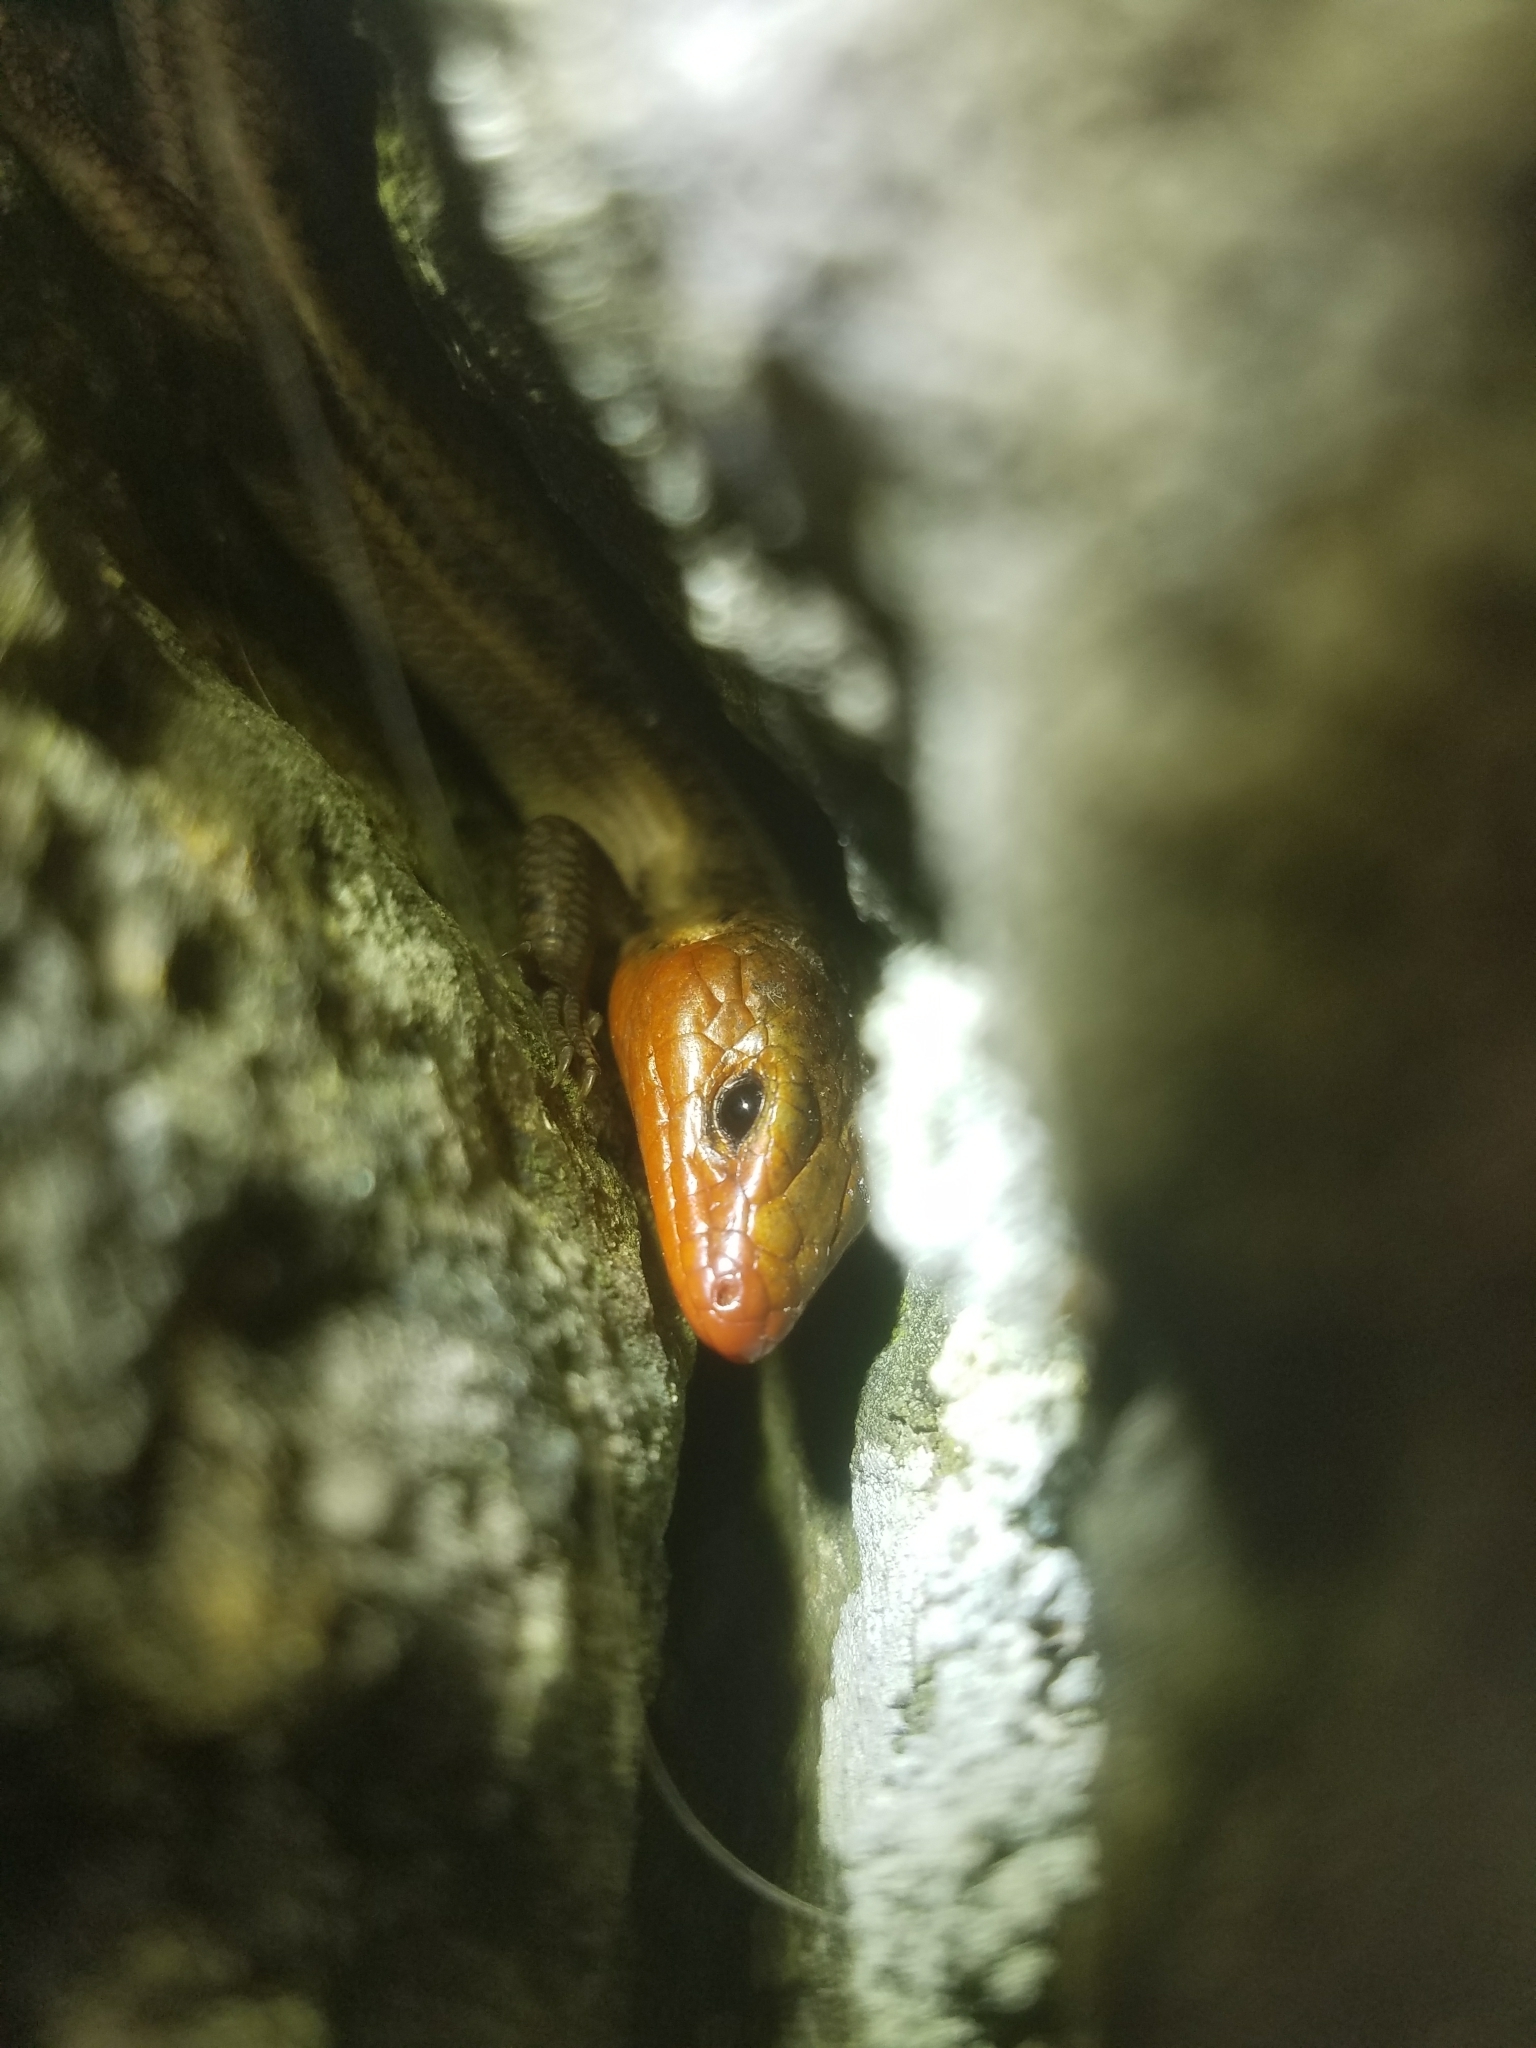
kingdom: Animalia
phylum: Chordata
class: Squamata
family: Scincidae
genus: Plestiodon
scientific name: Plestiodon fasciatus
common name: Five-lined skink
